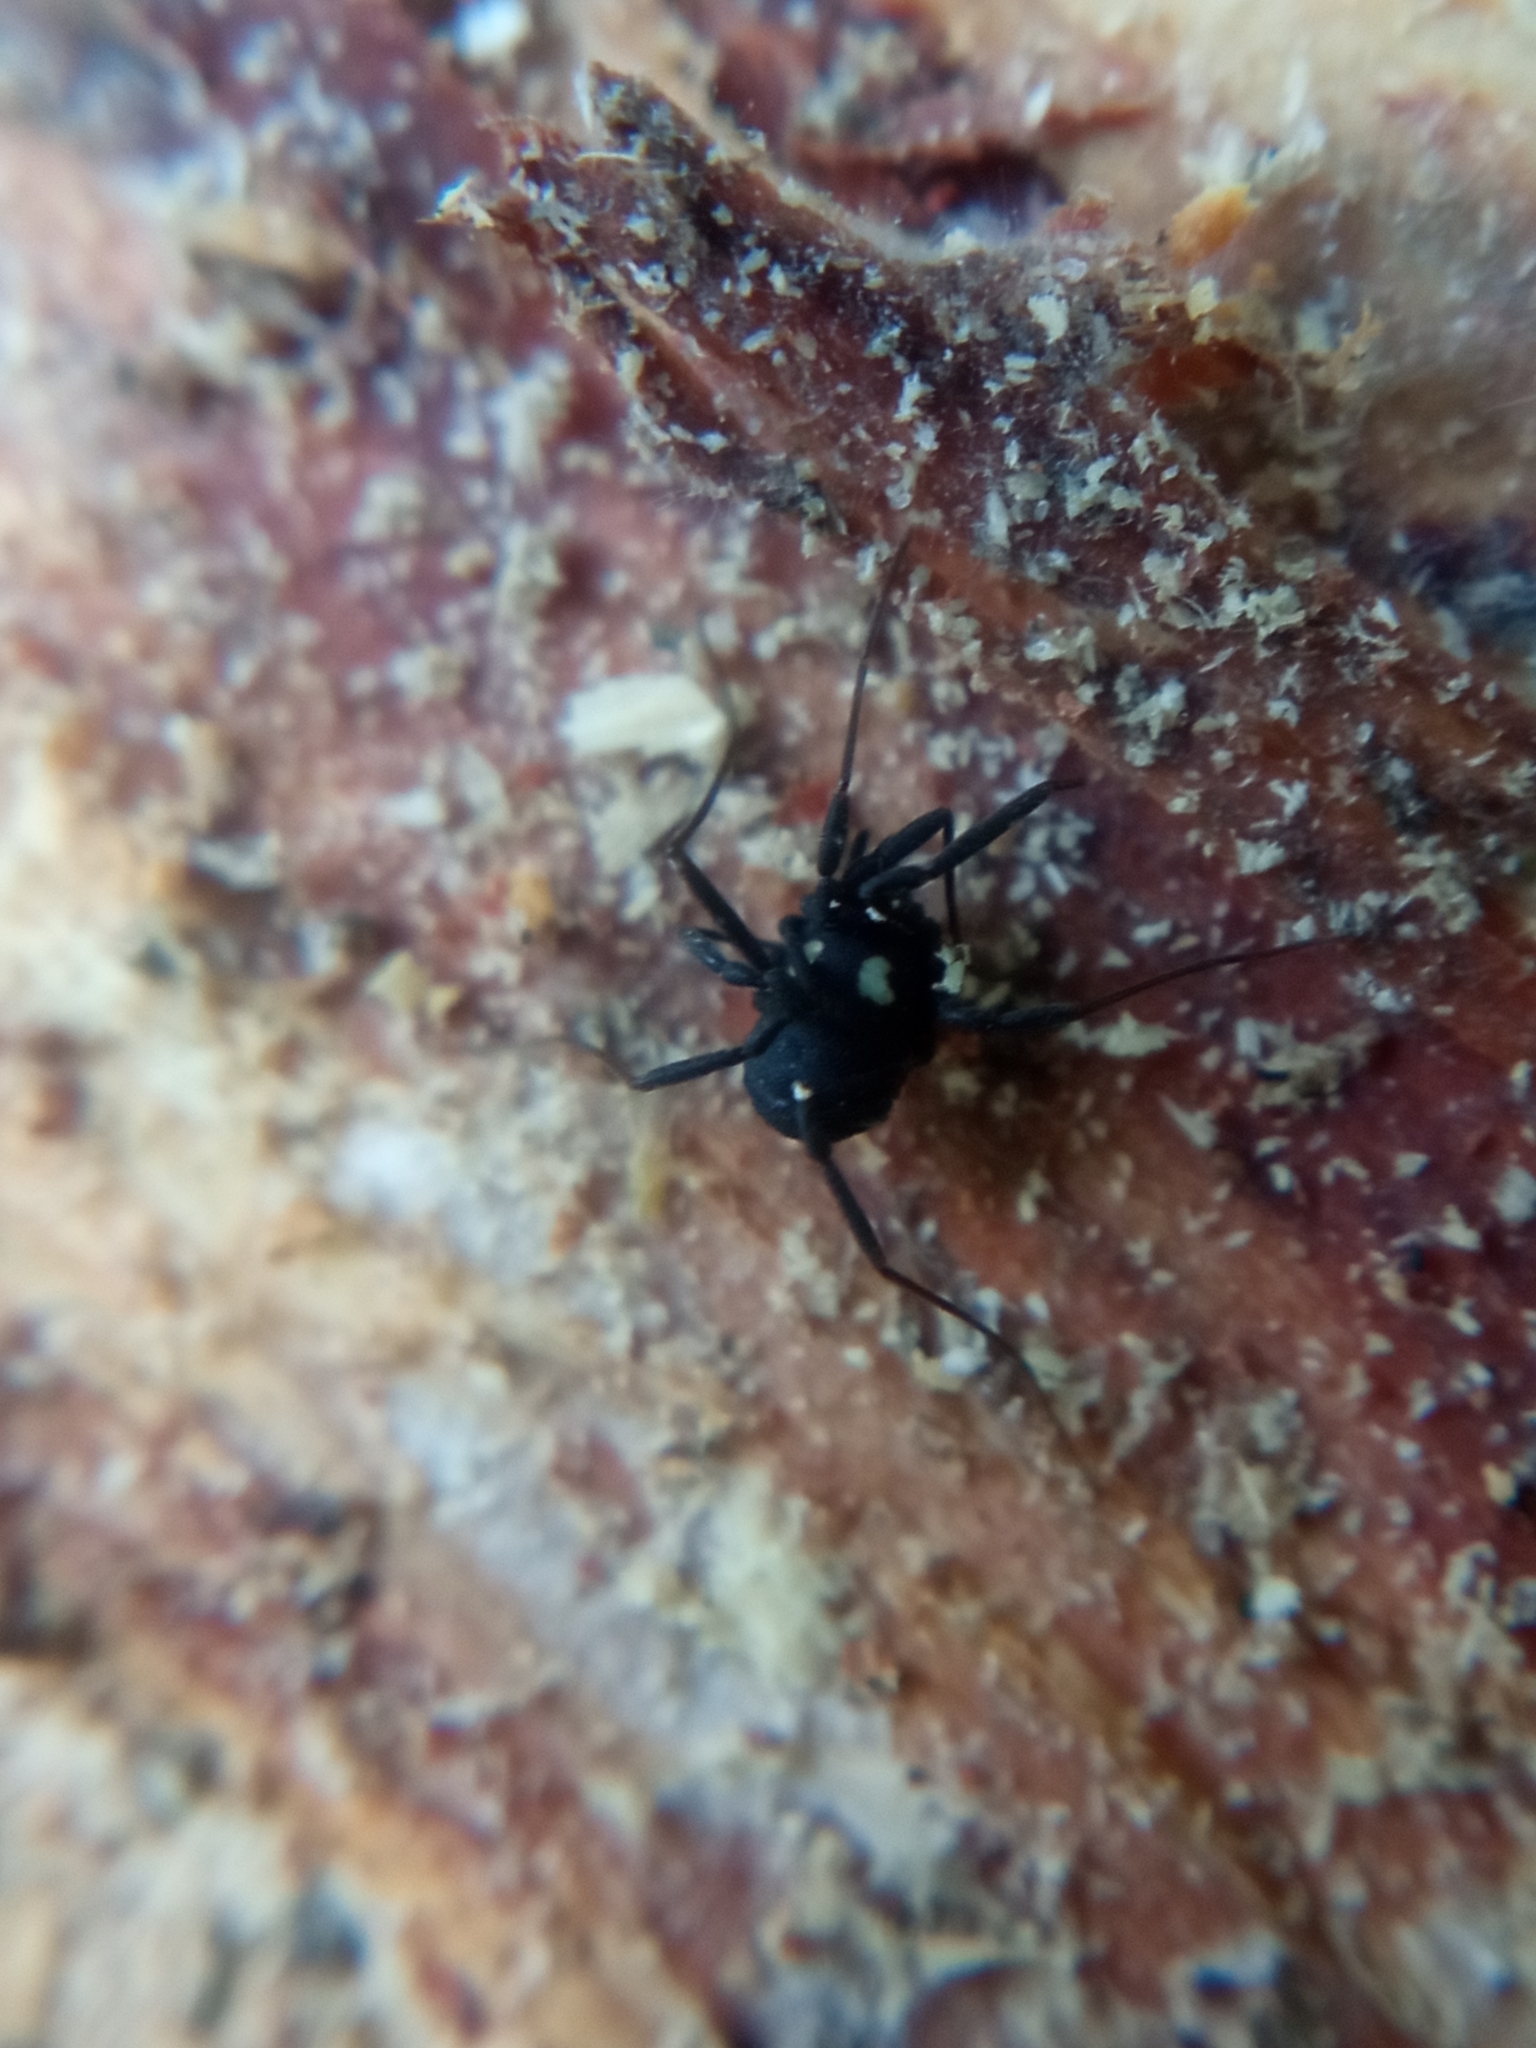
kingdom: Animalia
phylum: Arthropoda
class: Arachnida
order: Opiliones
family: Nemastomatidae
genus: Nemastoma
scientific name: Nemastoma lugubre
